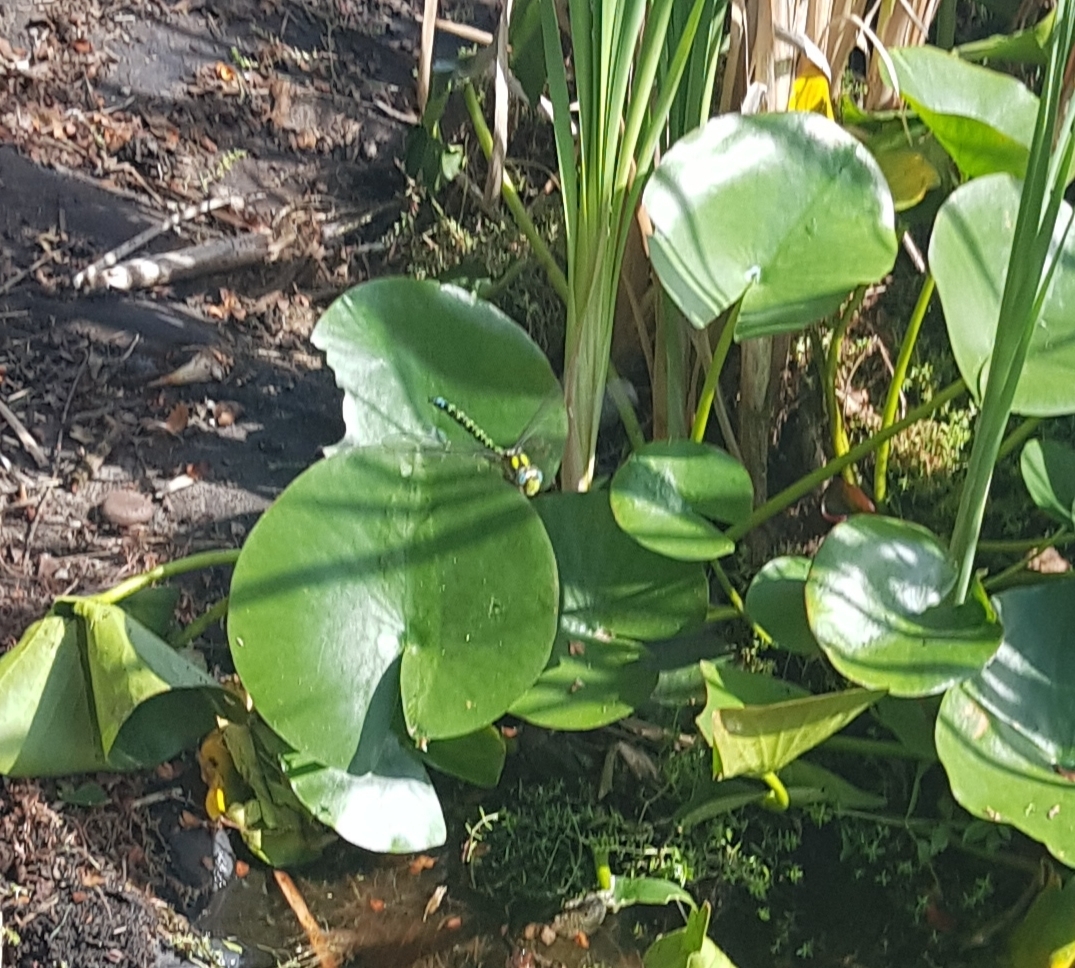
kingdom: Animalia
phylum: Arthropoda
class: Insecta
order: Odonata
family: Aeshnidae
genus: Aeshna
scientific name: Aeshna cyanea
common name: Southern hawker
